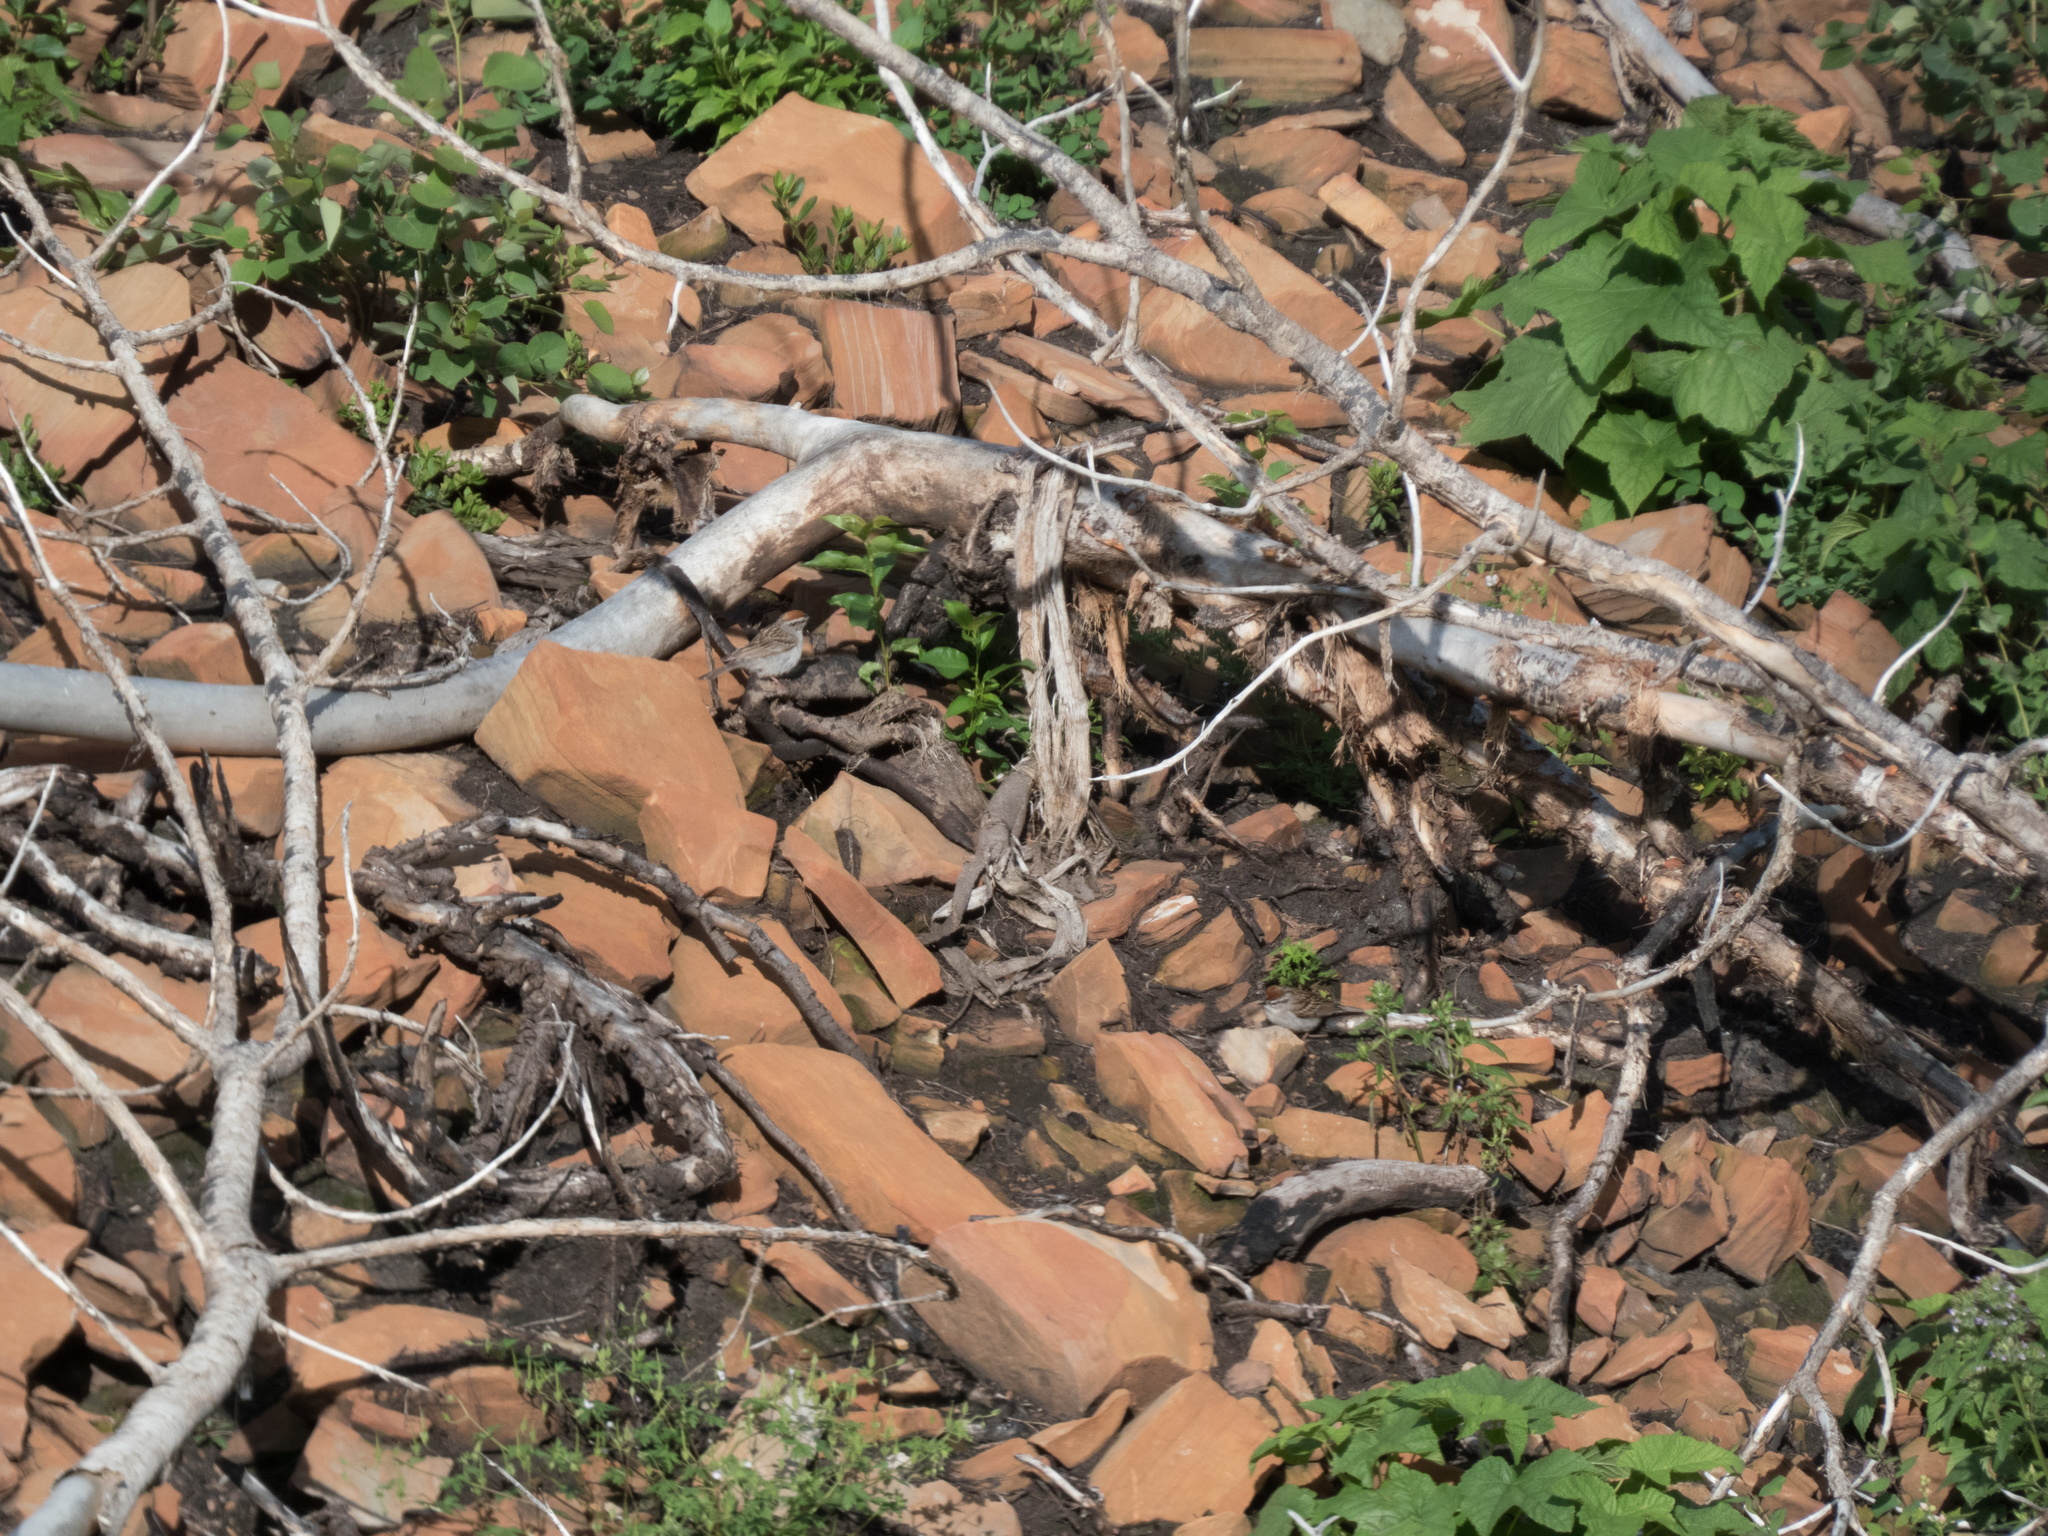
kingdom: Animalia
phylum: Chordata
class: Aves
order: Passeriformes
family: Passerellidae
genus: Spizella
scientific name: Spizella passerina
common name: Chipping sparrow
